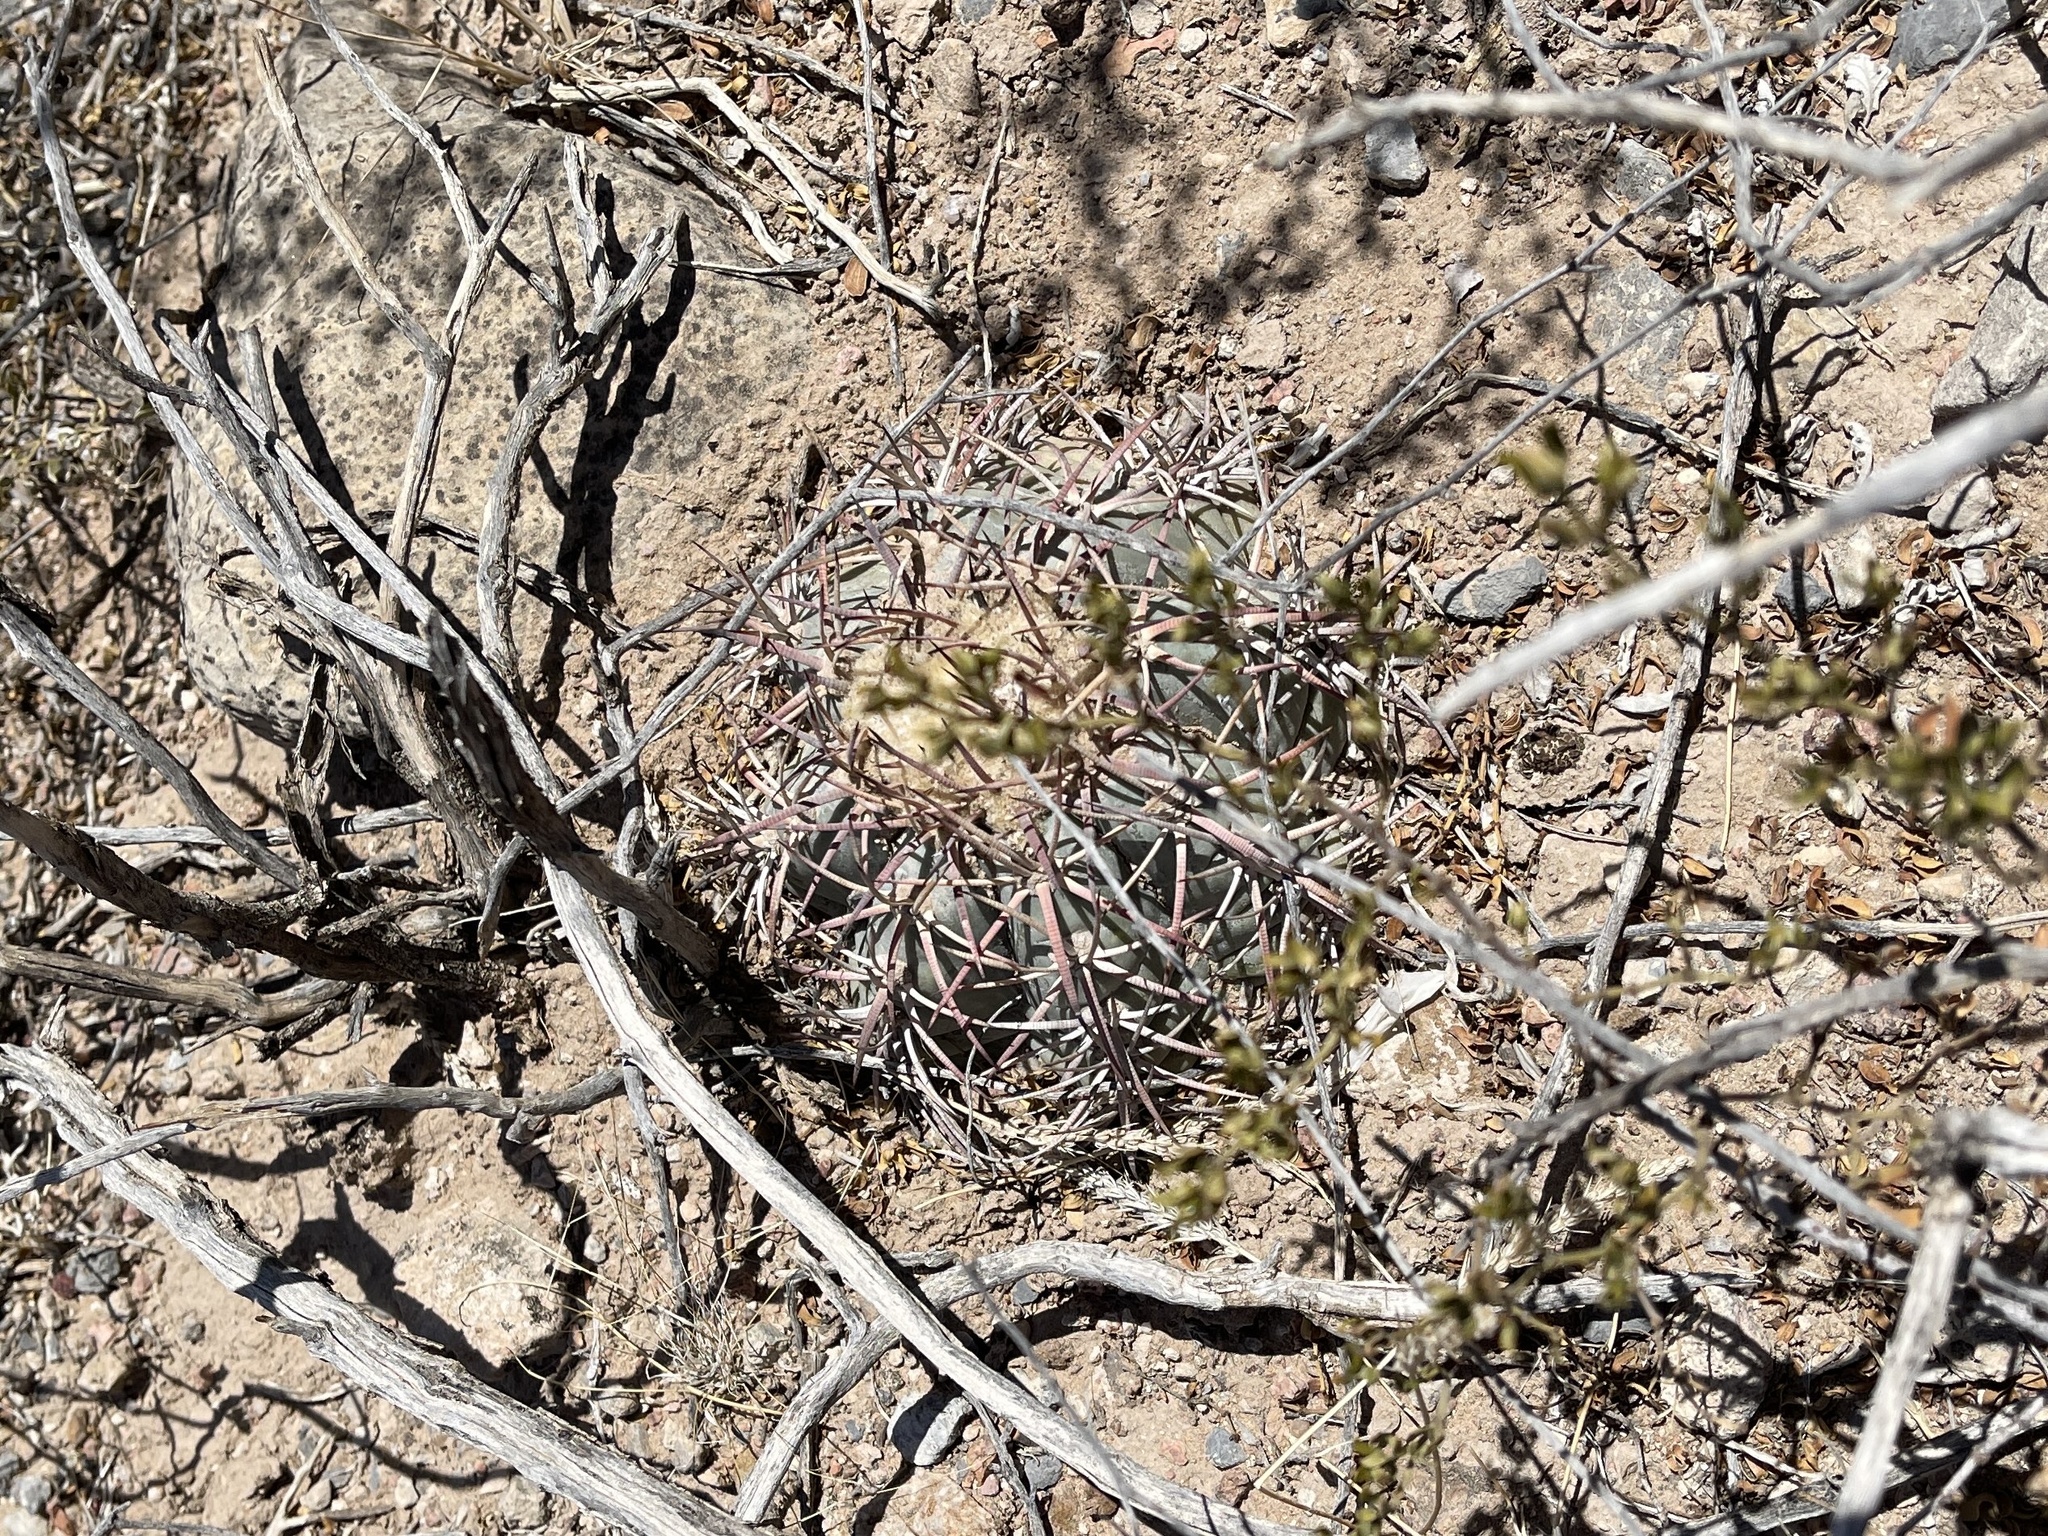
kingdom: Plantae
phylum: Tracheophyta
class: Magnoliopsida
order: Caryophyllales
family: Cactaceae
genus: Echinocactus
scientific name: Echinocactus horizonthalonius
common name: Devilshead
